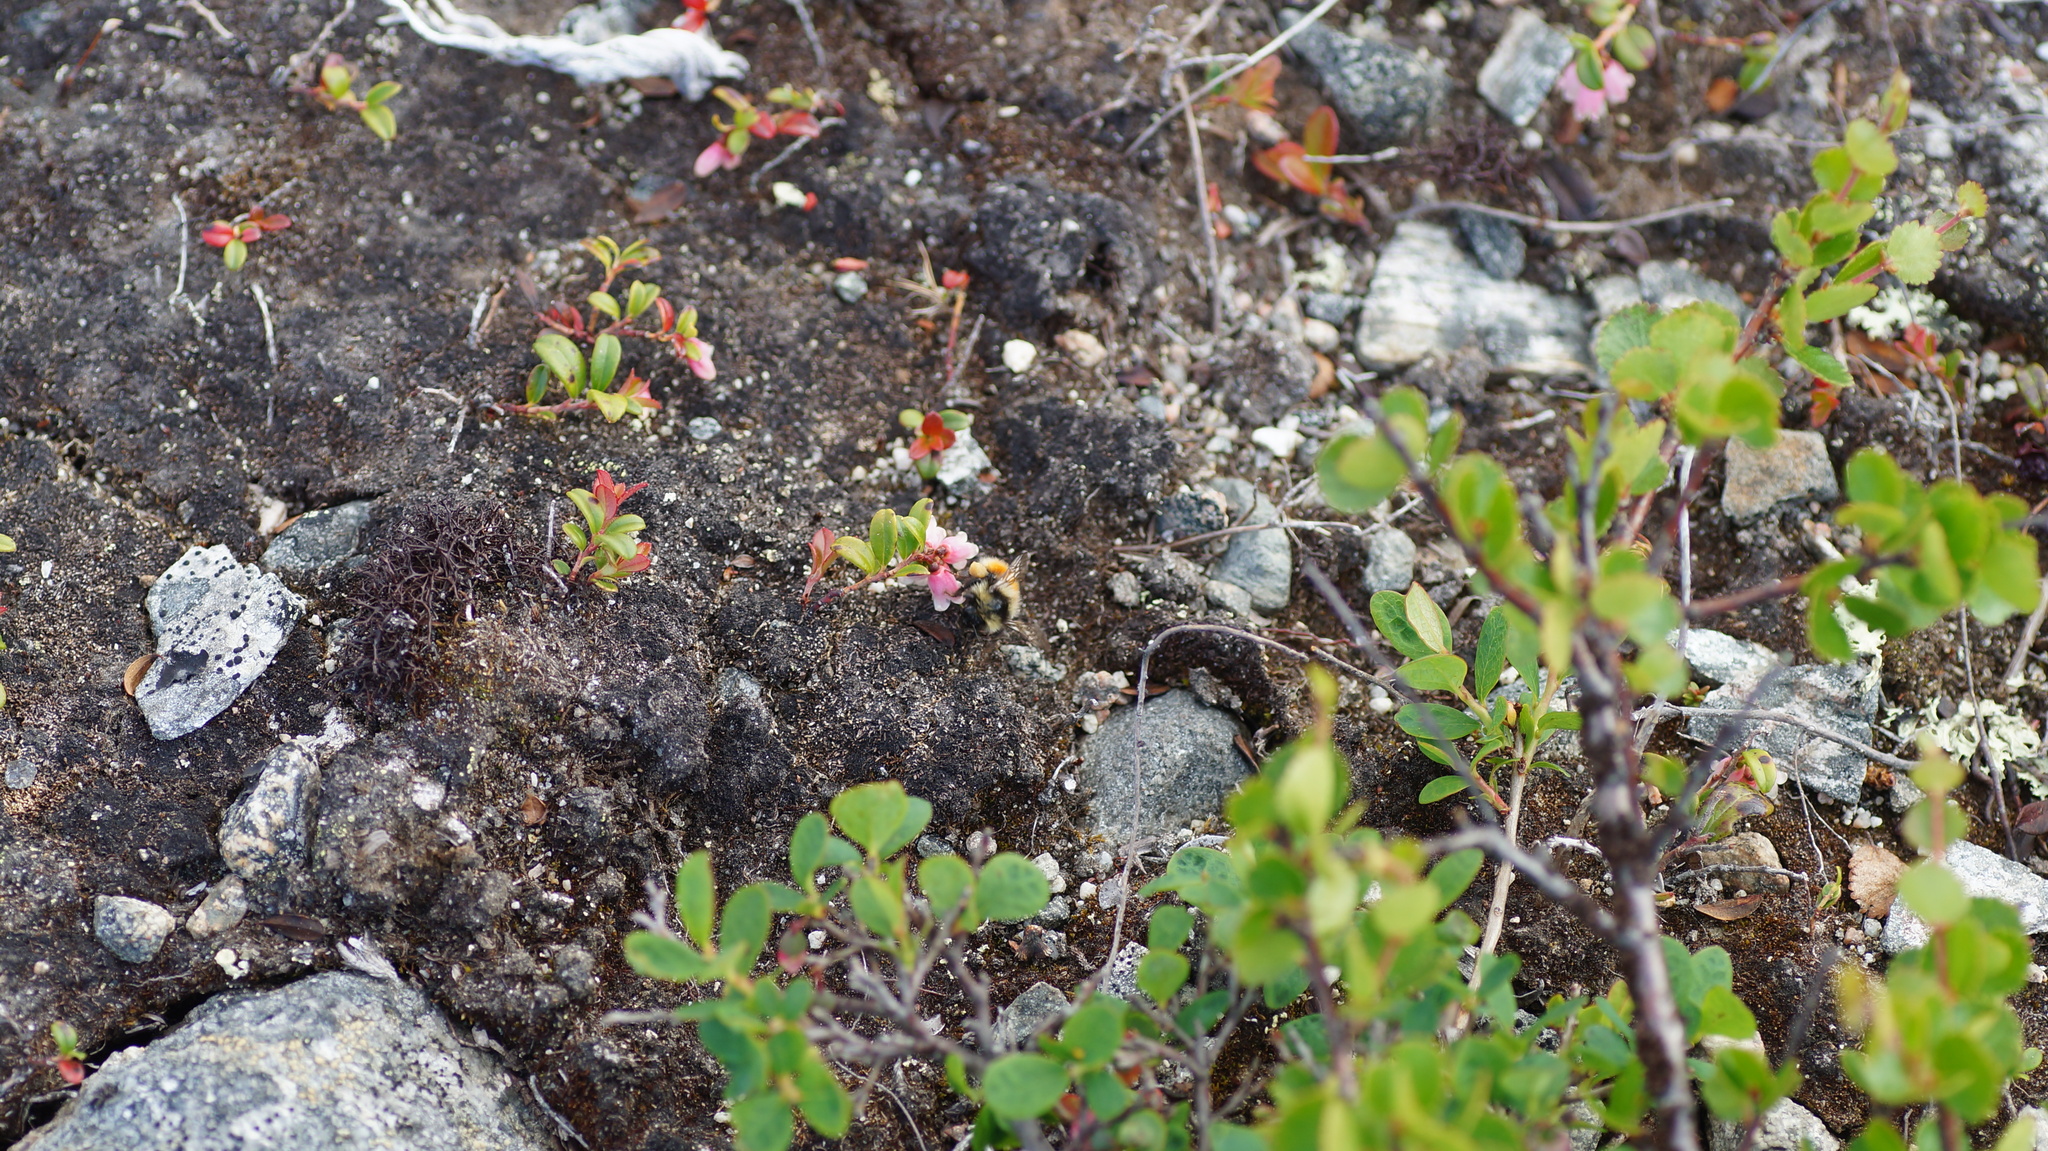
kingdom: Animalia
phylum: Arthropoda
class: Insecta
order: Hymenoptera
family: Apidae
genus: Bombus
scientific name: Bombus lapponicus
